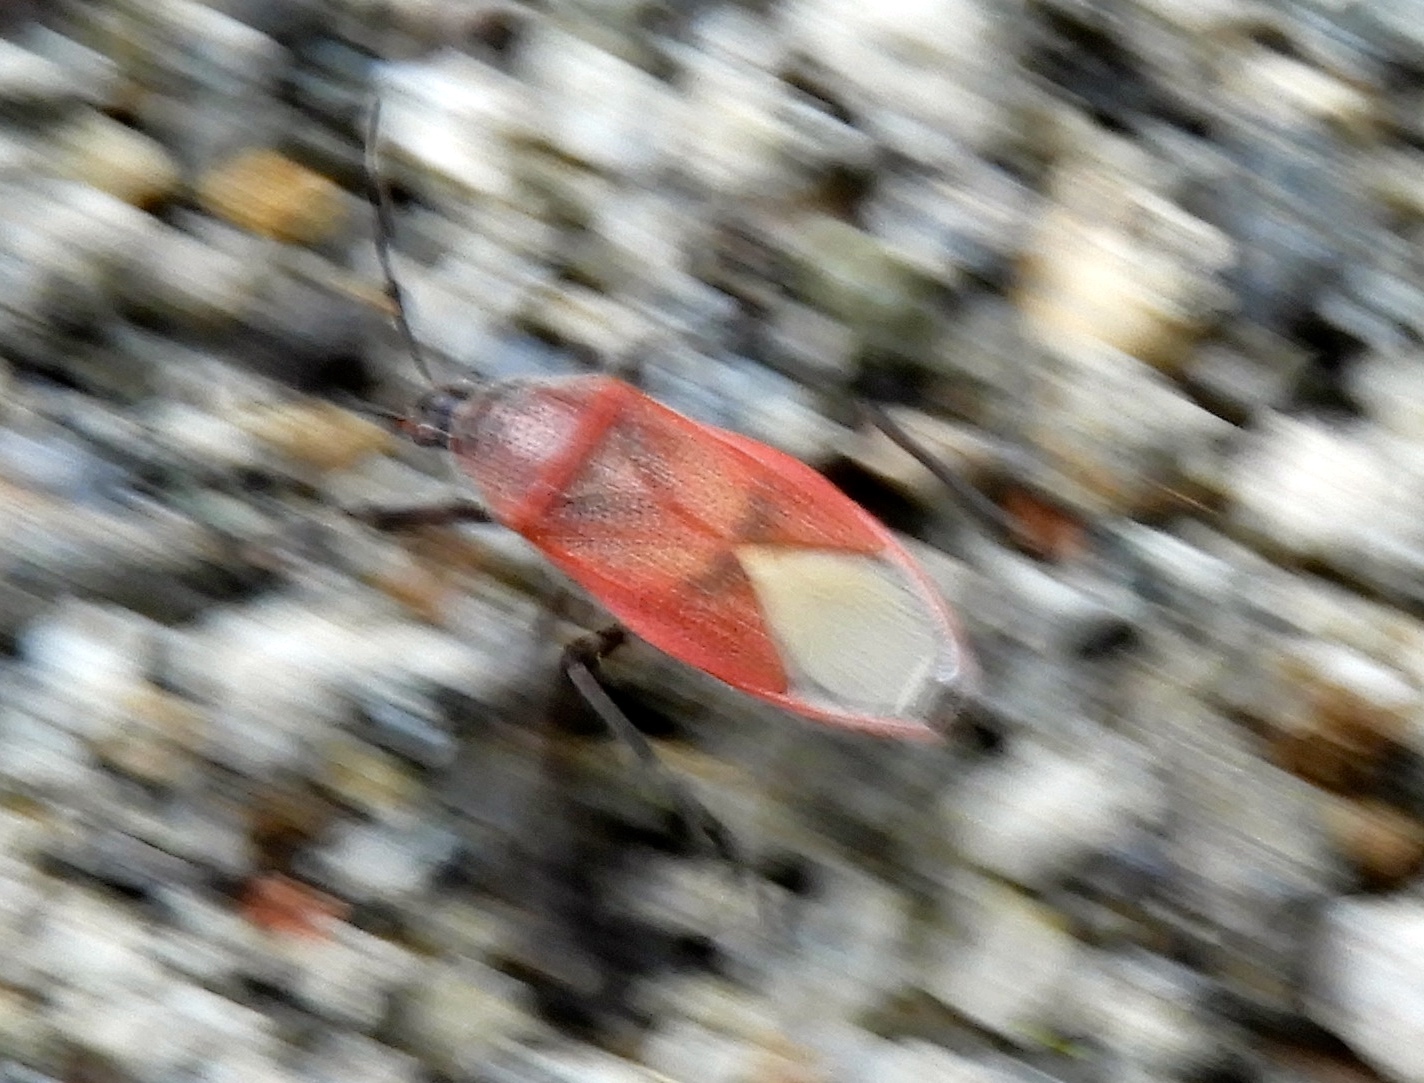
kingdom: Animalia
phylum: Arthropoda
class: Insecta
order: Hemiptera
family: Largidae
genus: Largus
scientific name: Largus
